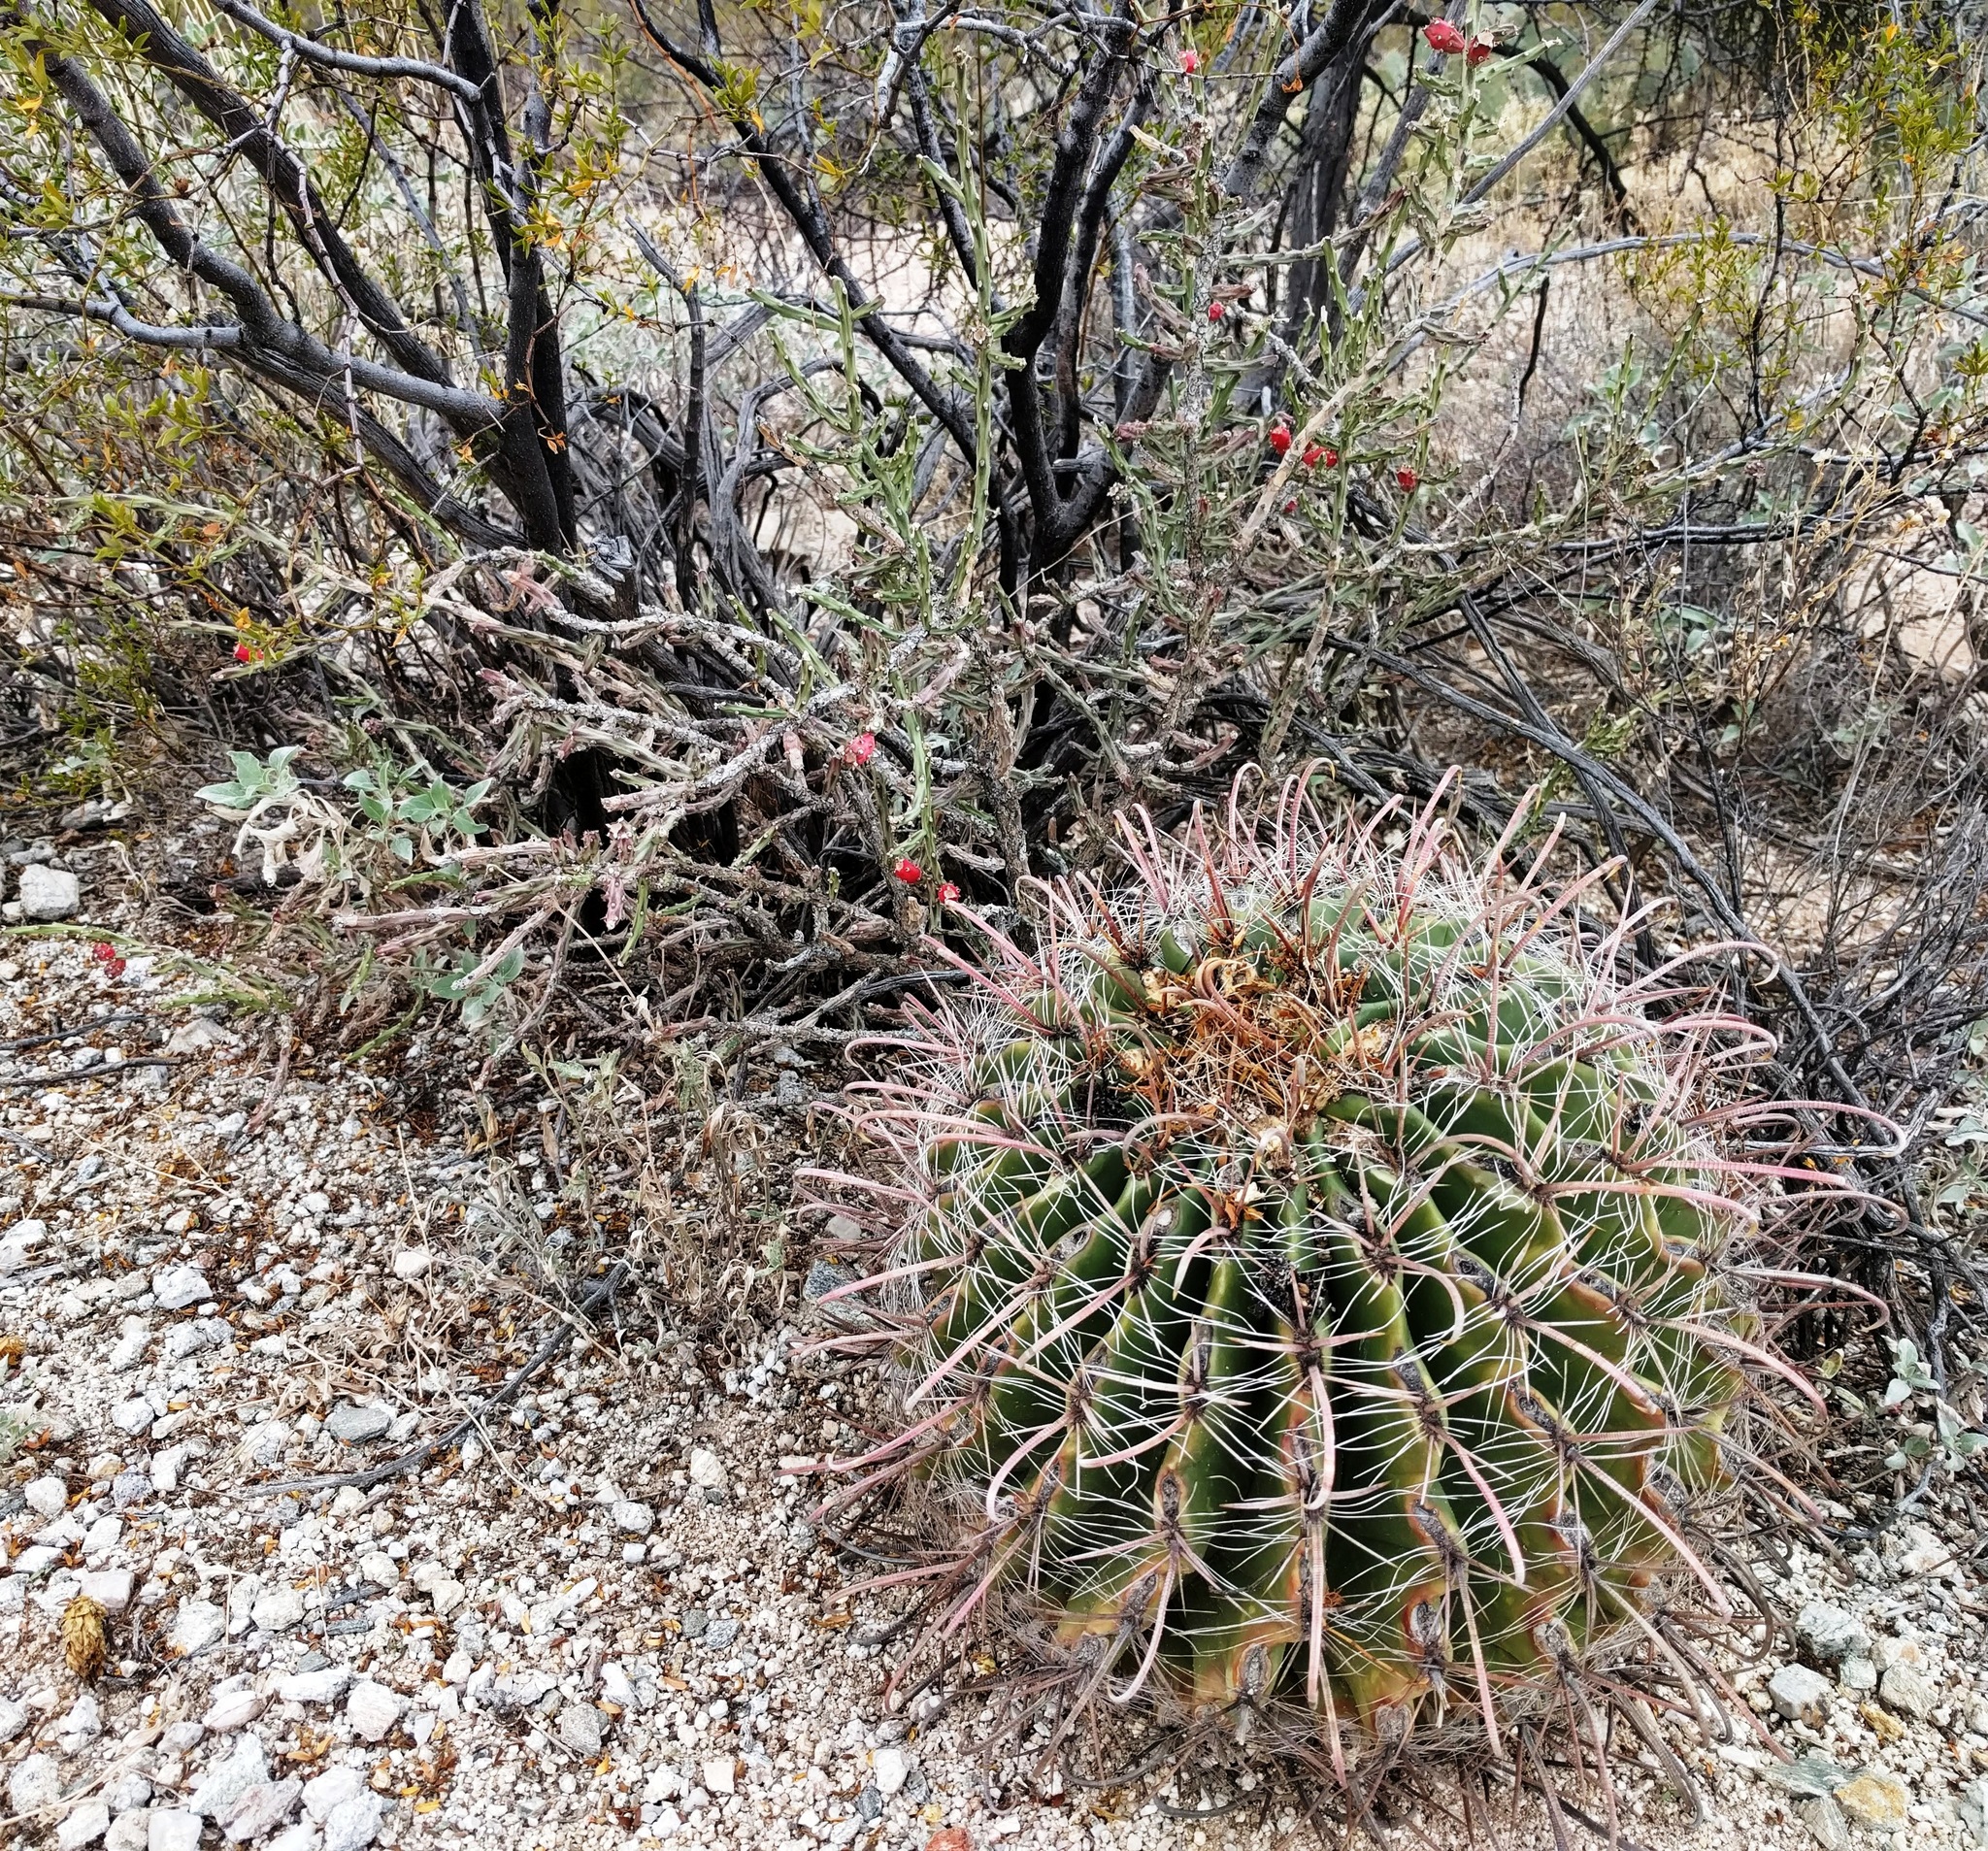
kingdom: Plantae
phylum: Tracheophyta
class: Magnoliopsida
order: Caryophyllales
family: Cactaceae
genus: Ferocactus
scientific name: Ferocactus wislizeni
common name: Candy barrel cactus
